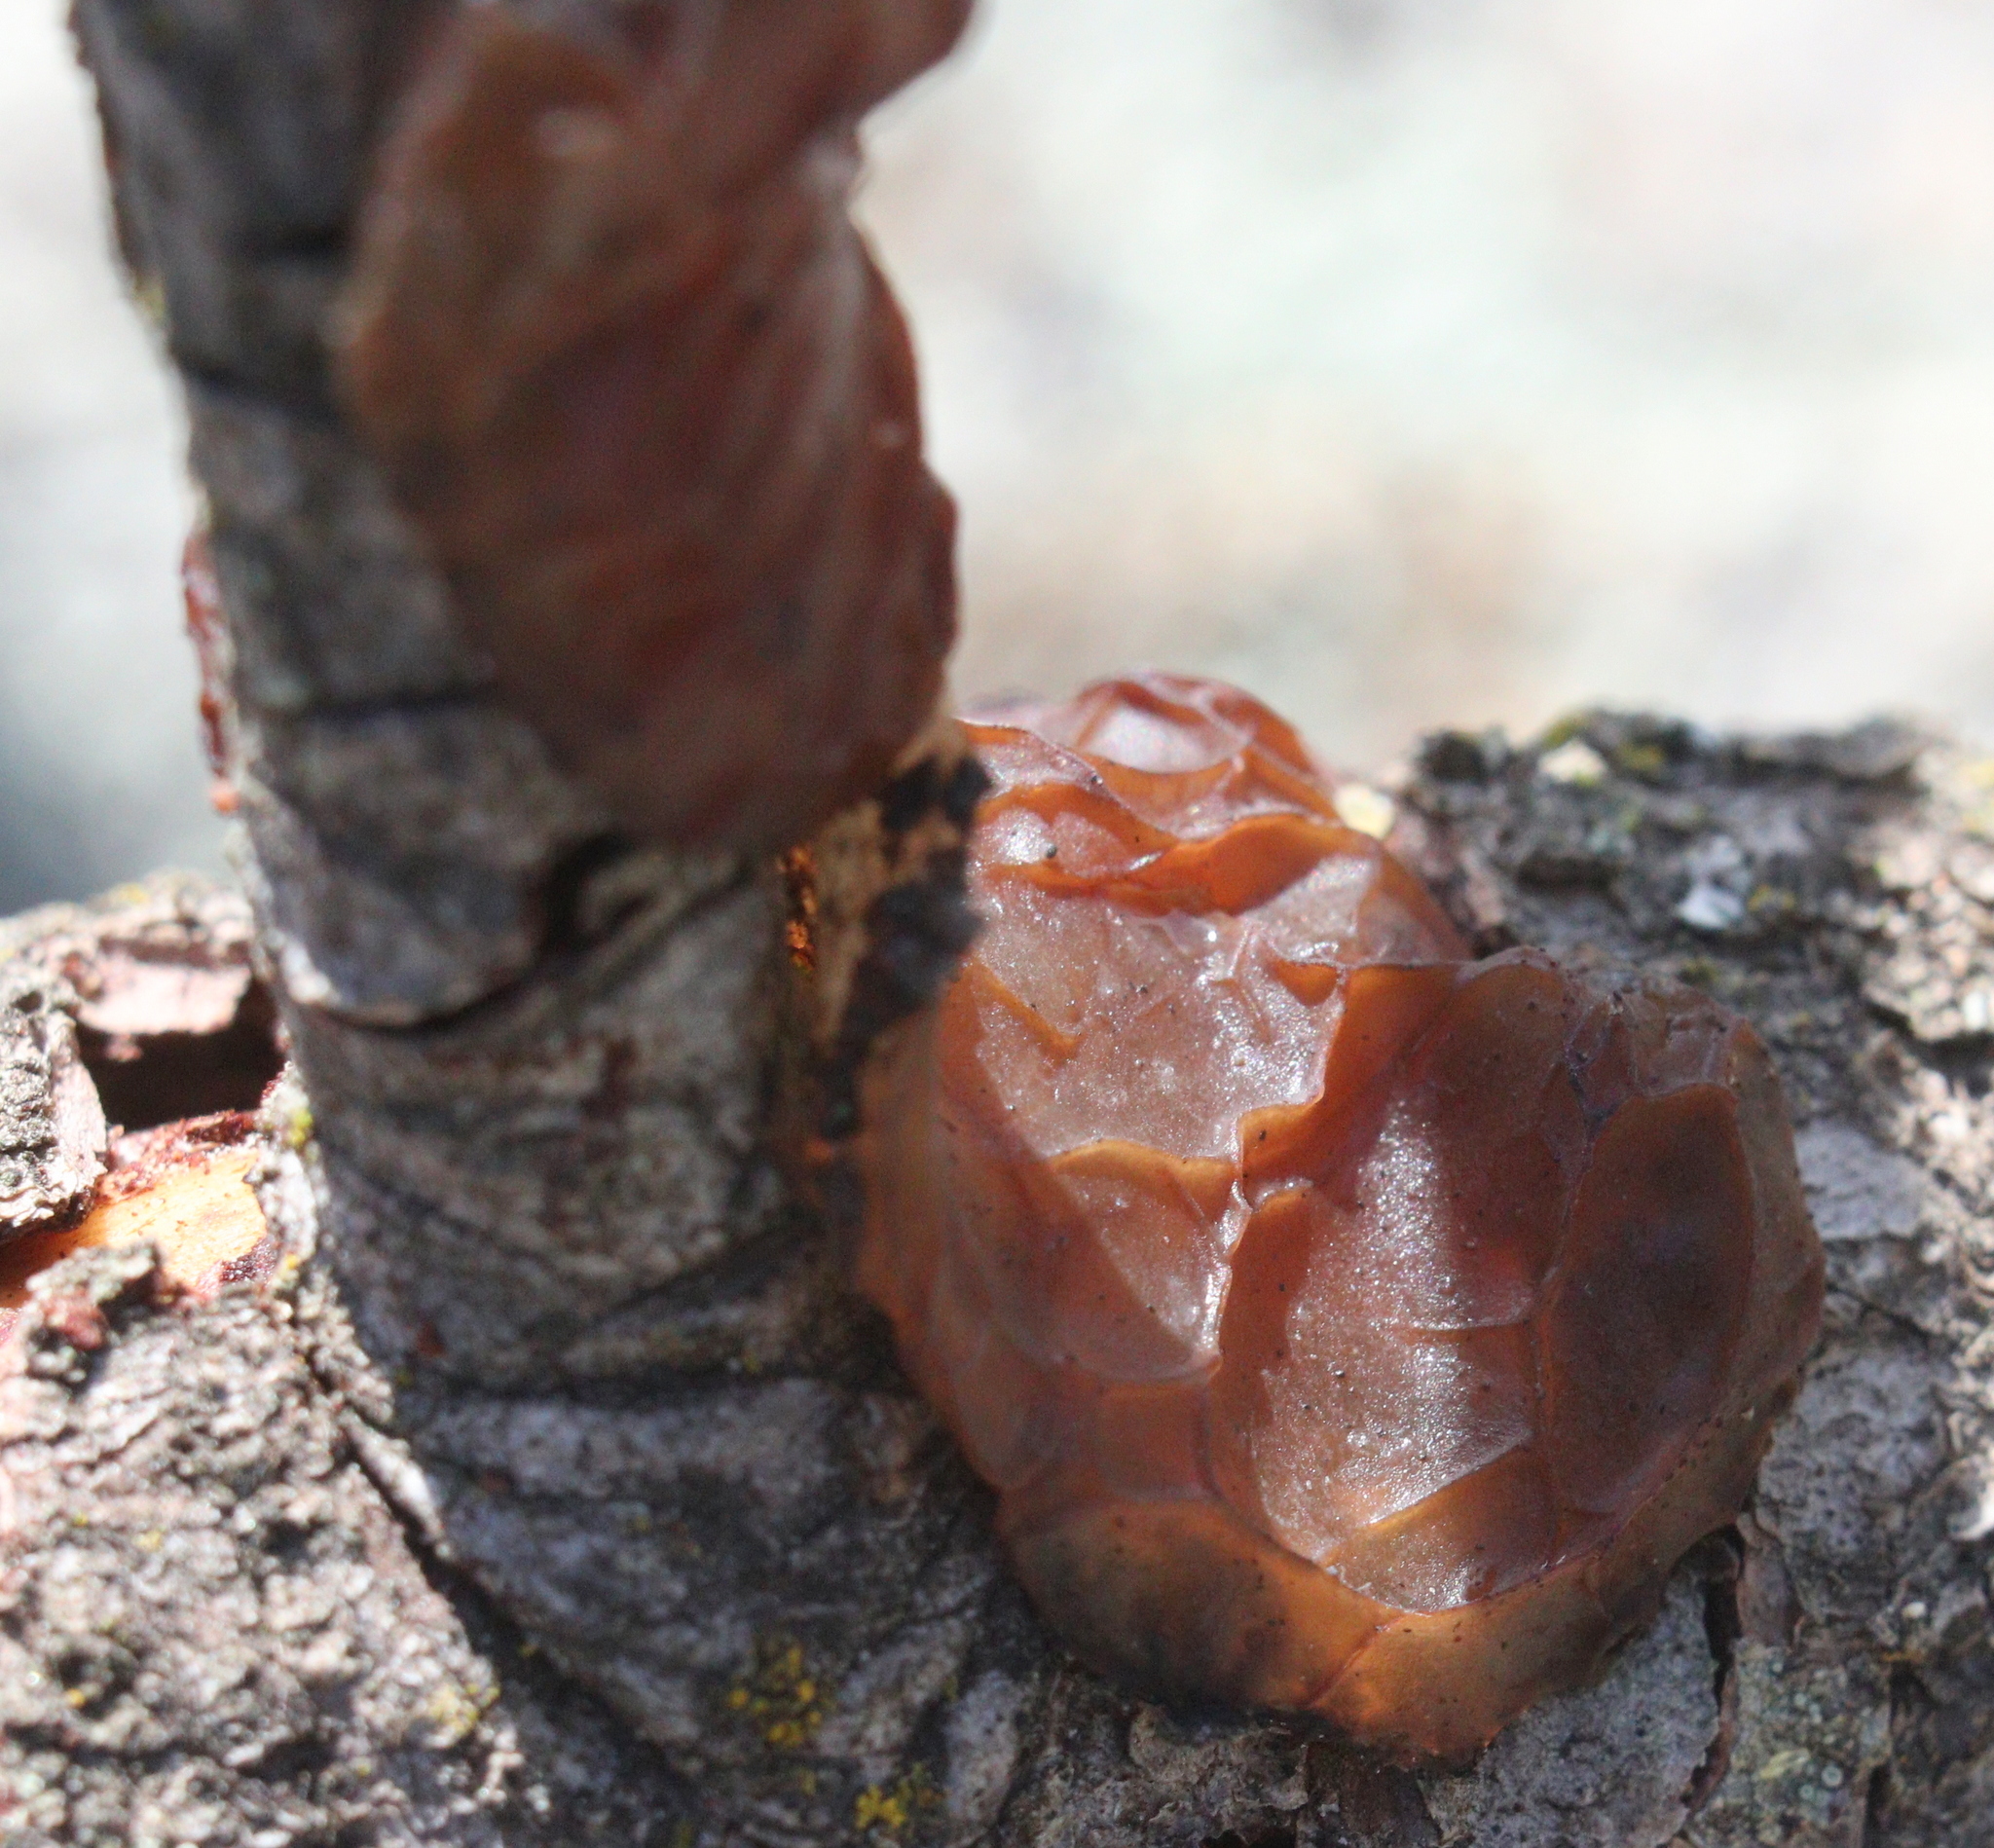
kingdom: Fungi
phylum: Basidiomycota
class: Agaricomycetes
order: Auriculariales
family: Auriculariaceae
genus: Auricularia
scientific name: Auricularia auricula-judae
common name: Jelly ear
